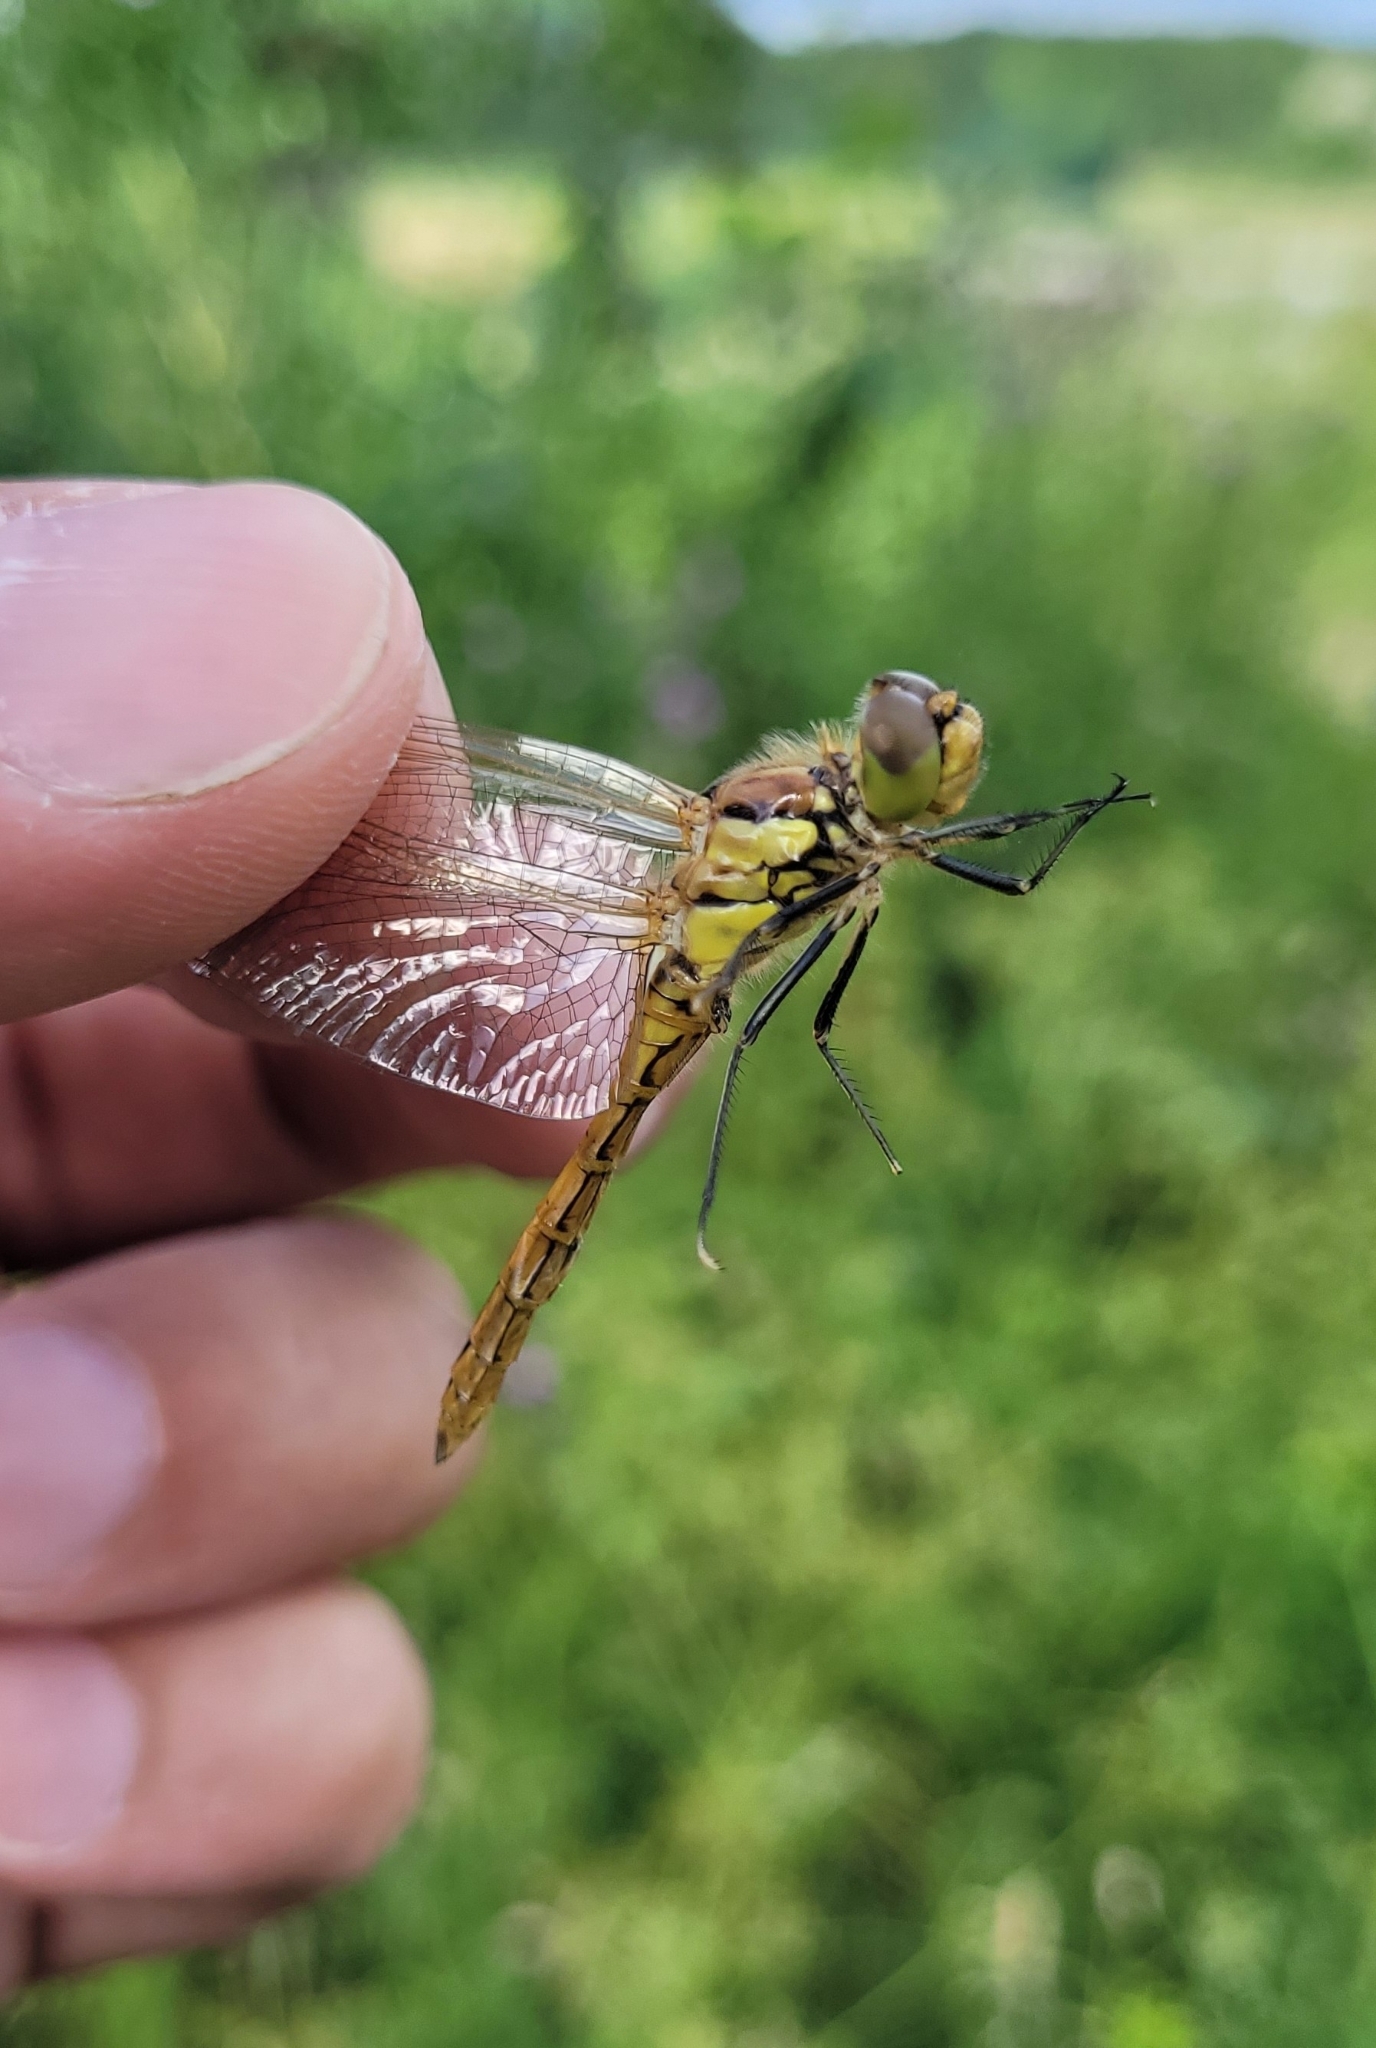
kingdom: Animalia
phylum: Arthropoda
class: Insecta
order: Odonata
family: Libellulidae
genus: Sympetrum
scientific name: Sympetrum vulgatum
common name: Vagrant darter
